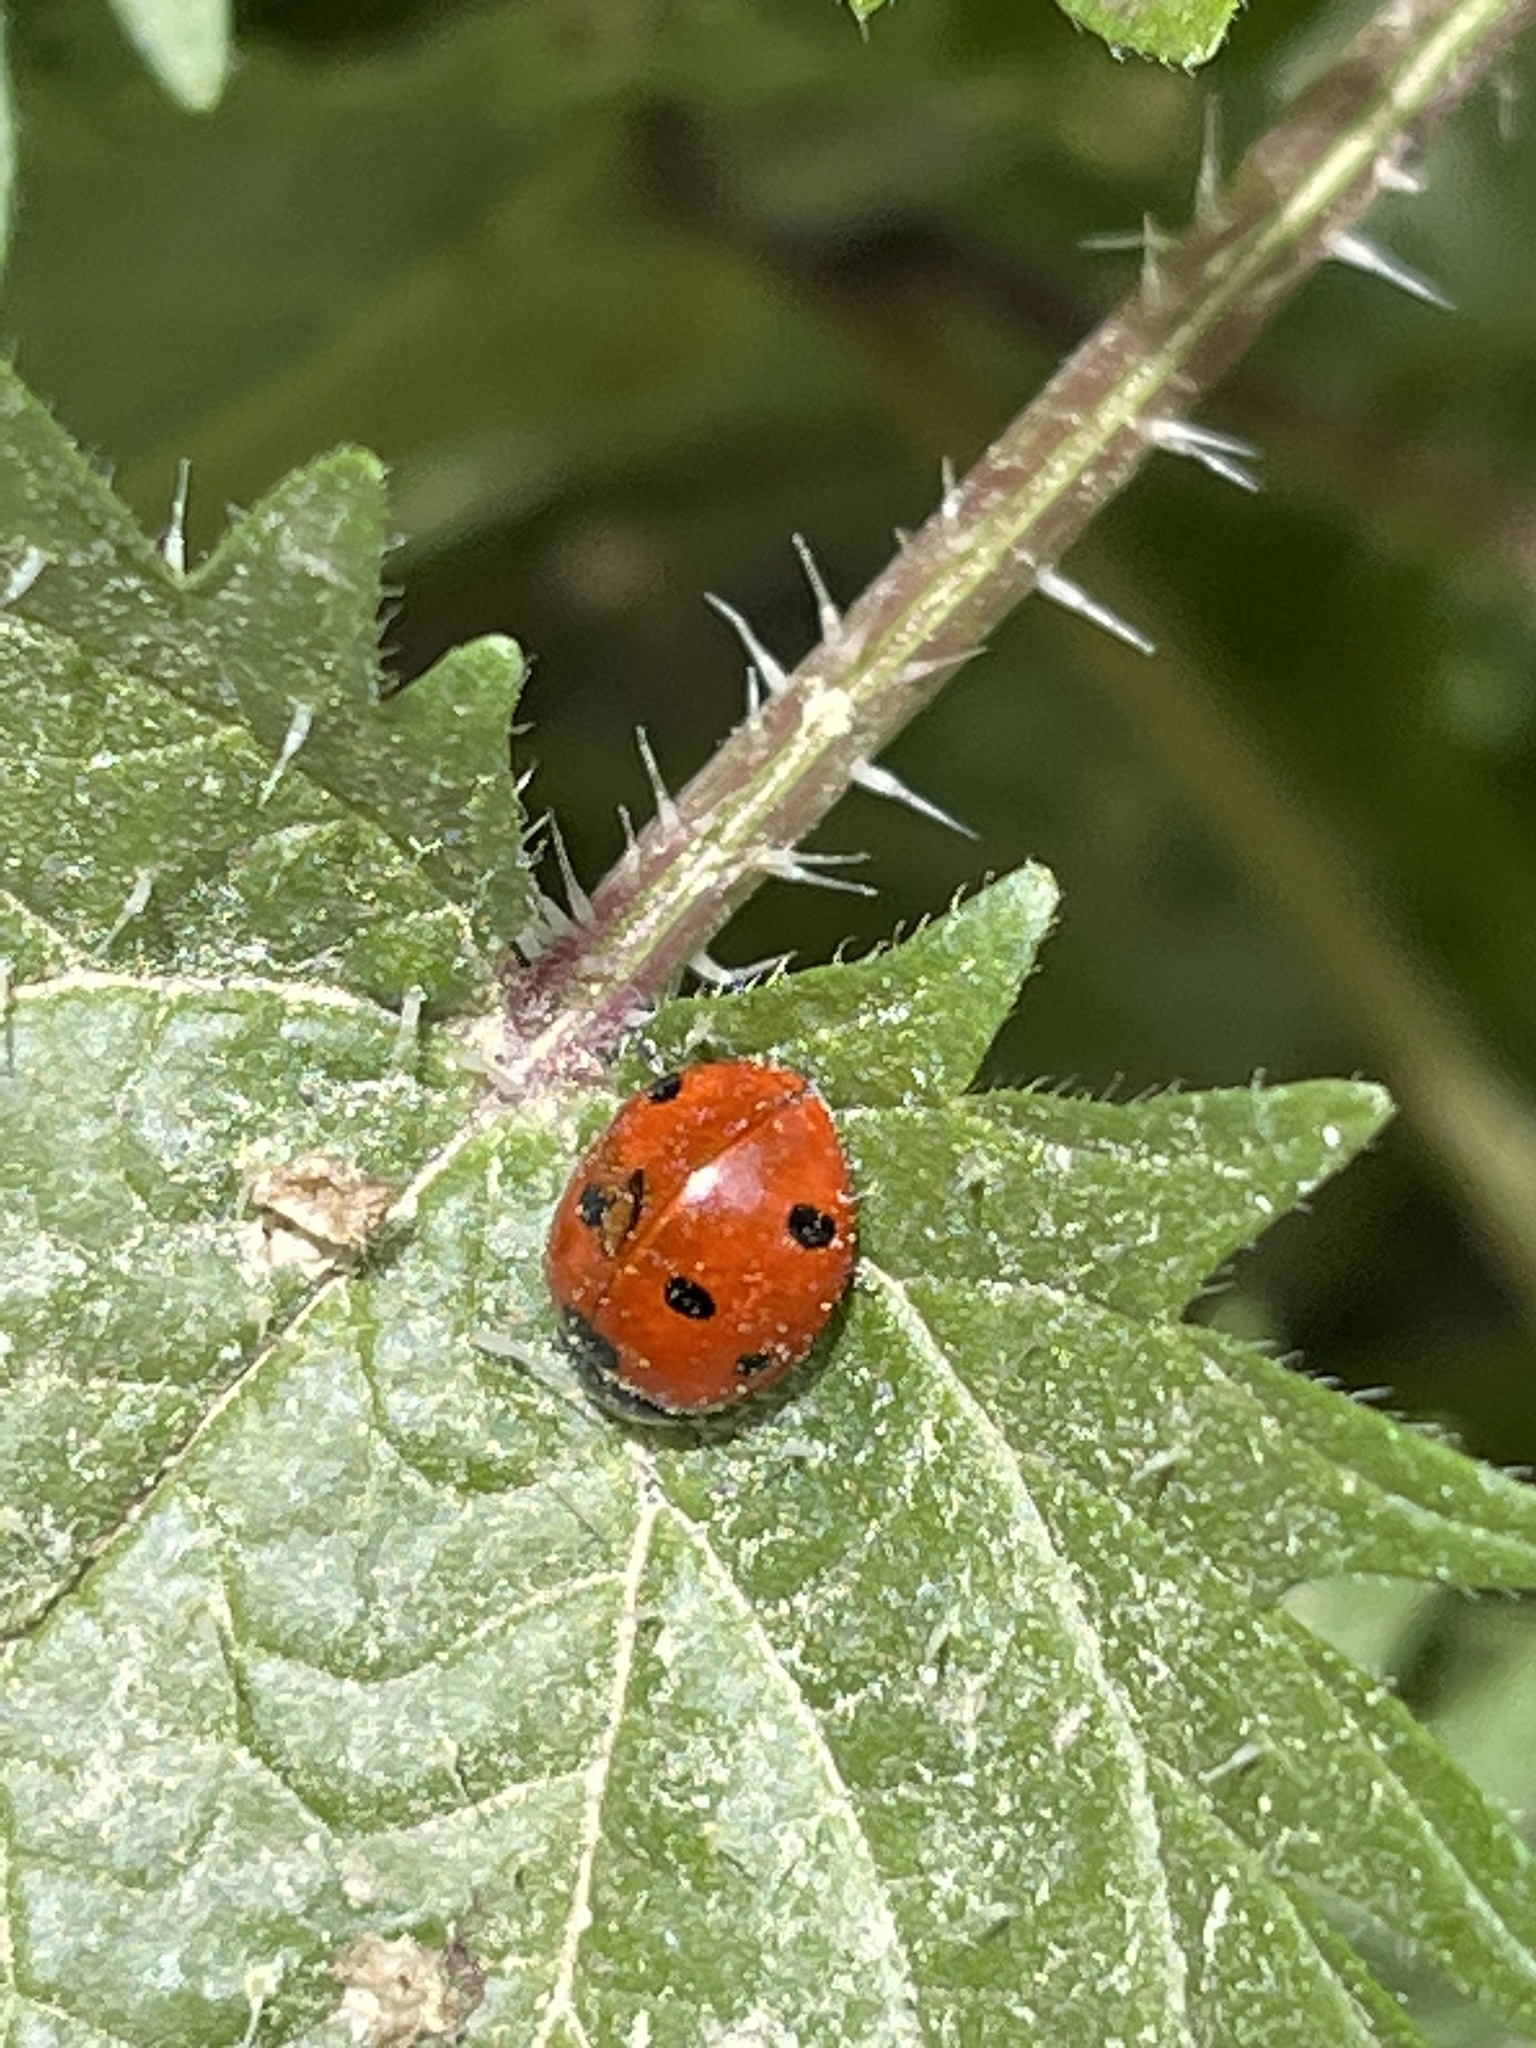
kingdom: Animalia
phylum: Arthropoda
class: Insecta
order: Coleoptera
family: Coccinellidae
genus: Coccinella
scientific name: Coccinella septempunctata
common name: Sevenspotted lady beetle
